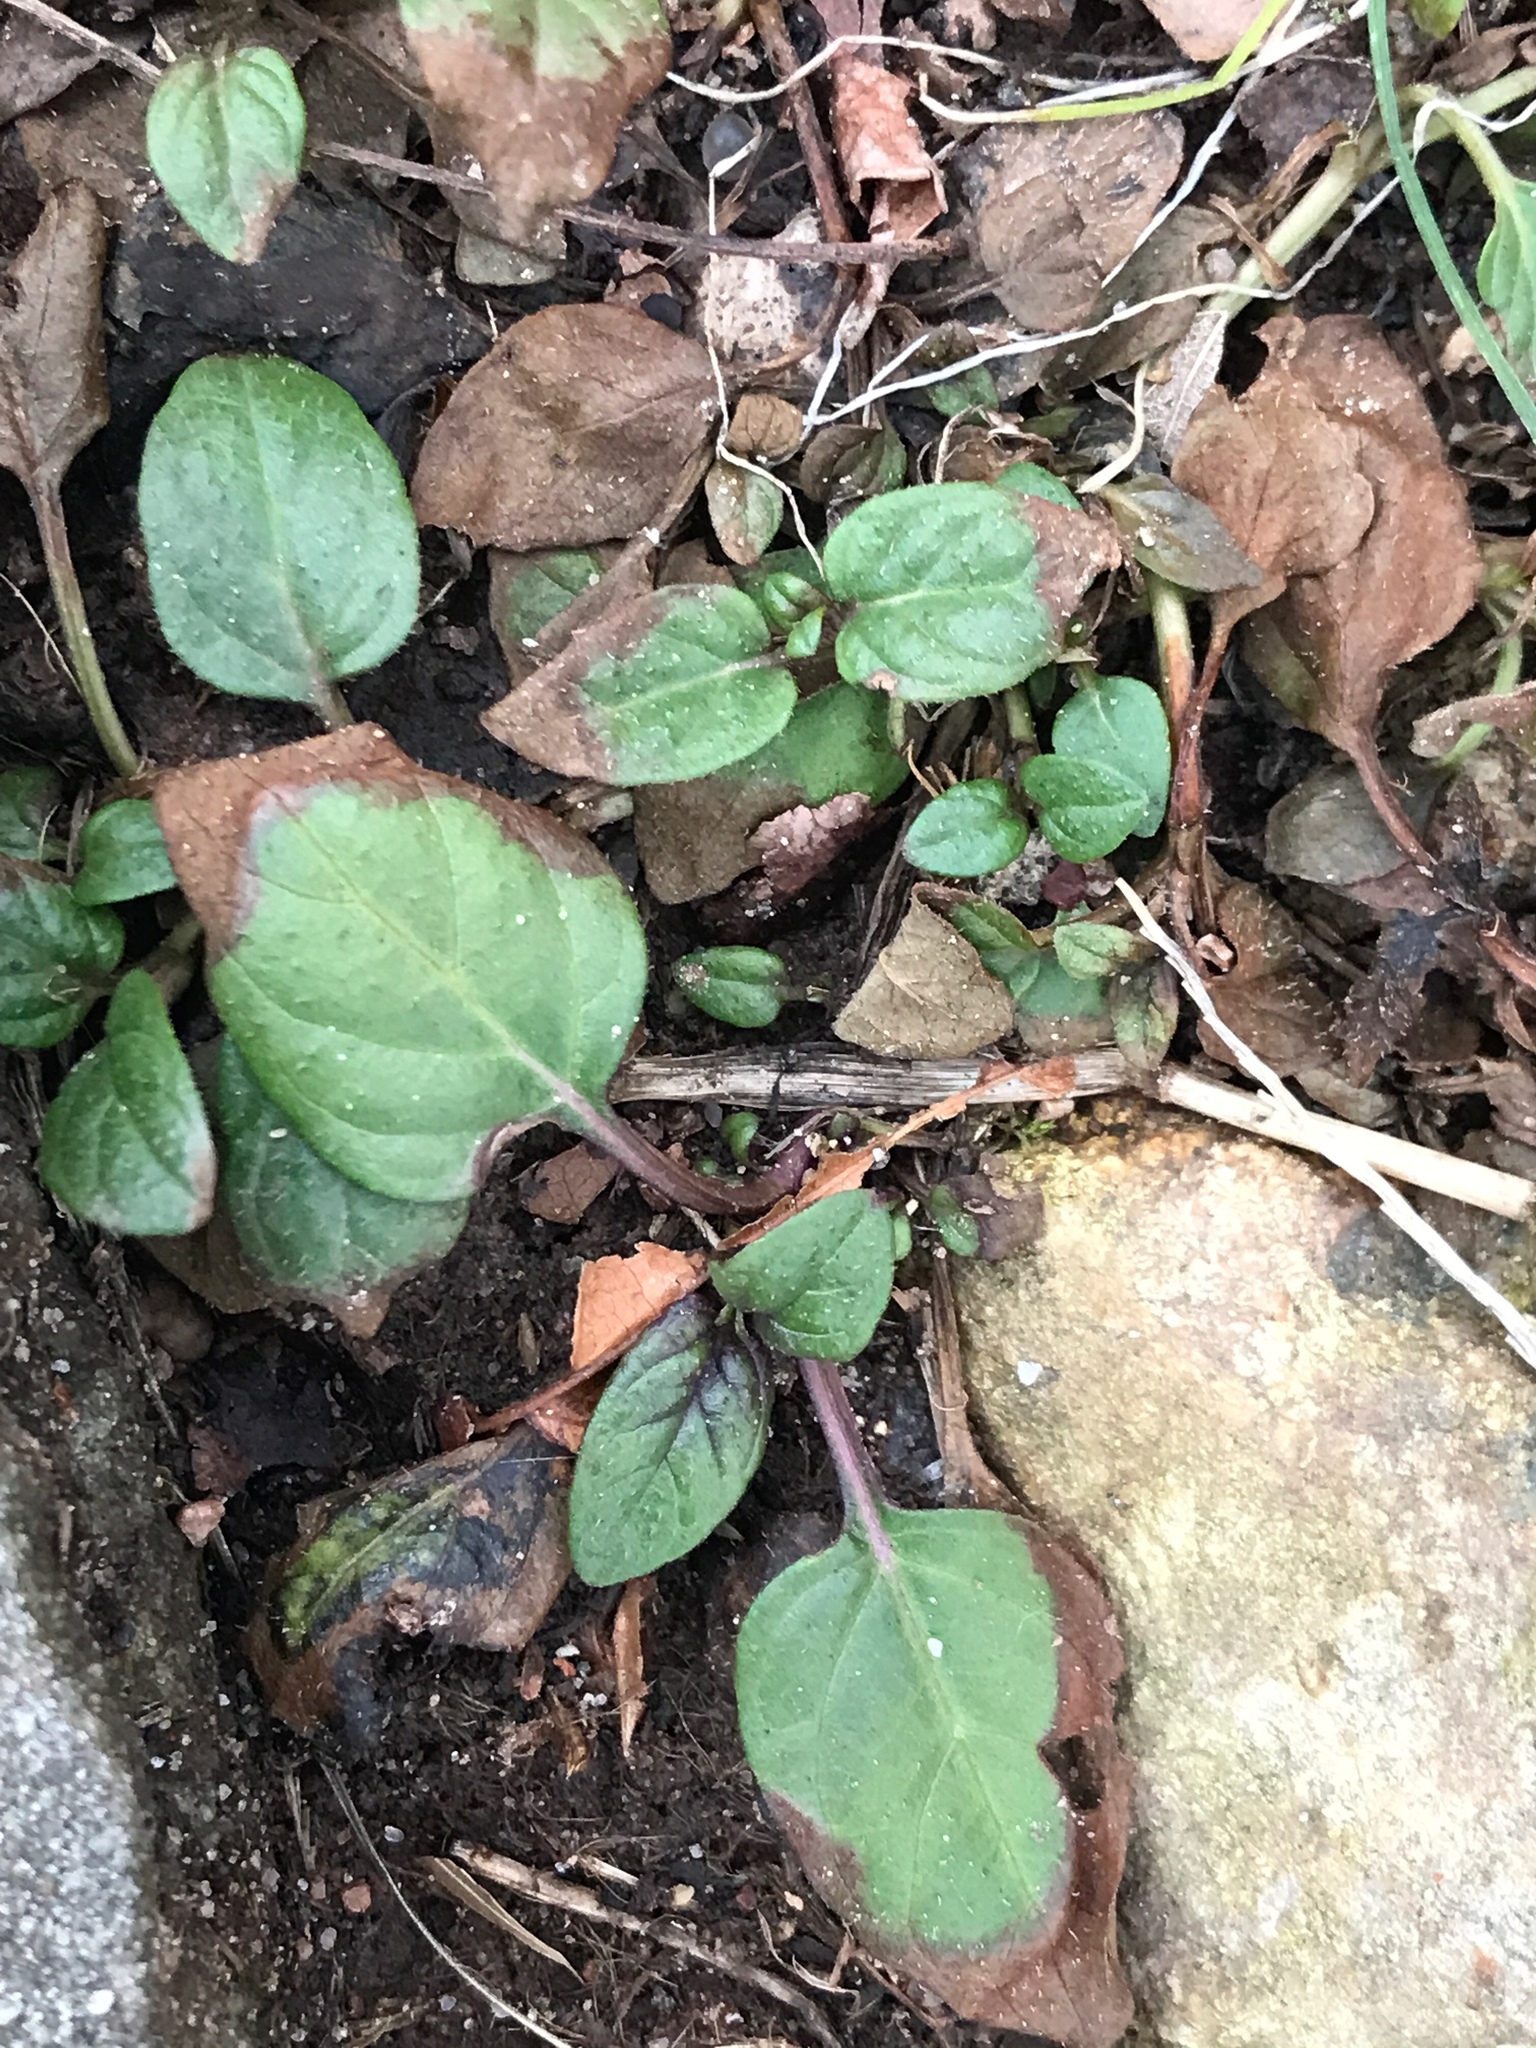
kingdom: Plantae
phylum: Tracheophyta
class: Magnoliopsida
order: Lamiales
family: Lamiaceae
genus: Prunella
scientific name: Prunella vulgaris
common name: Heal-all
